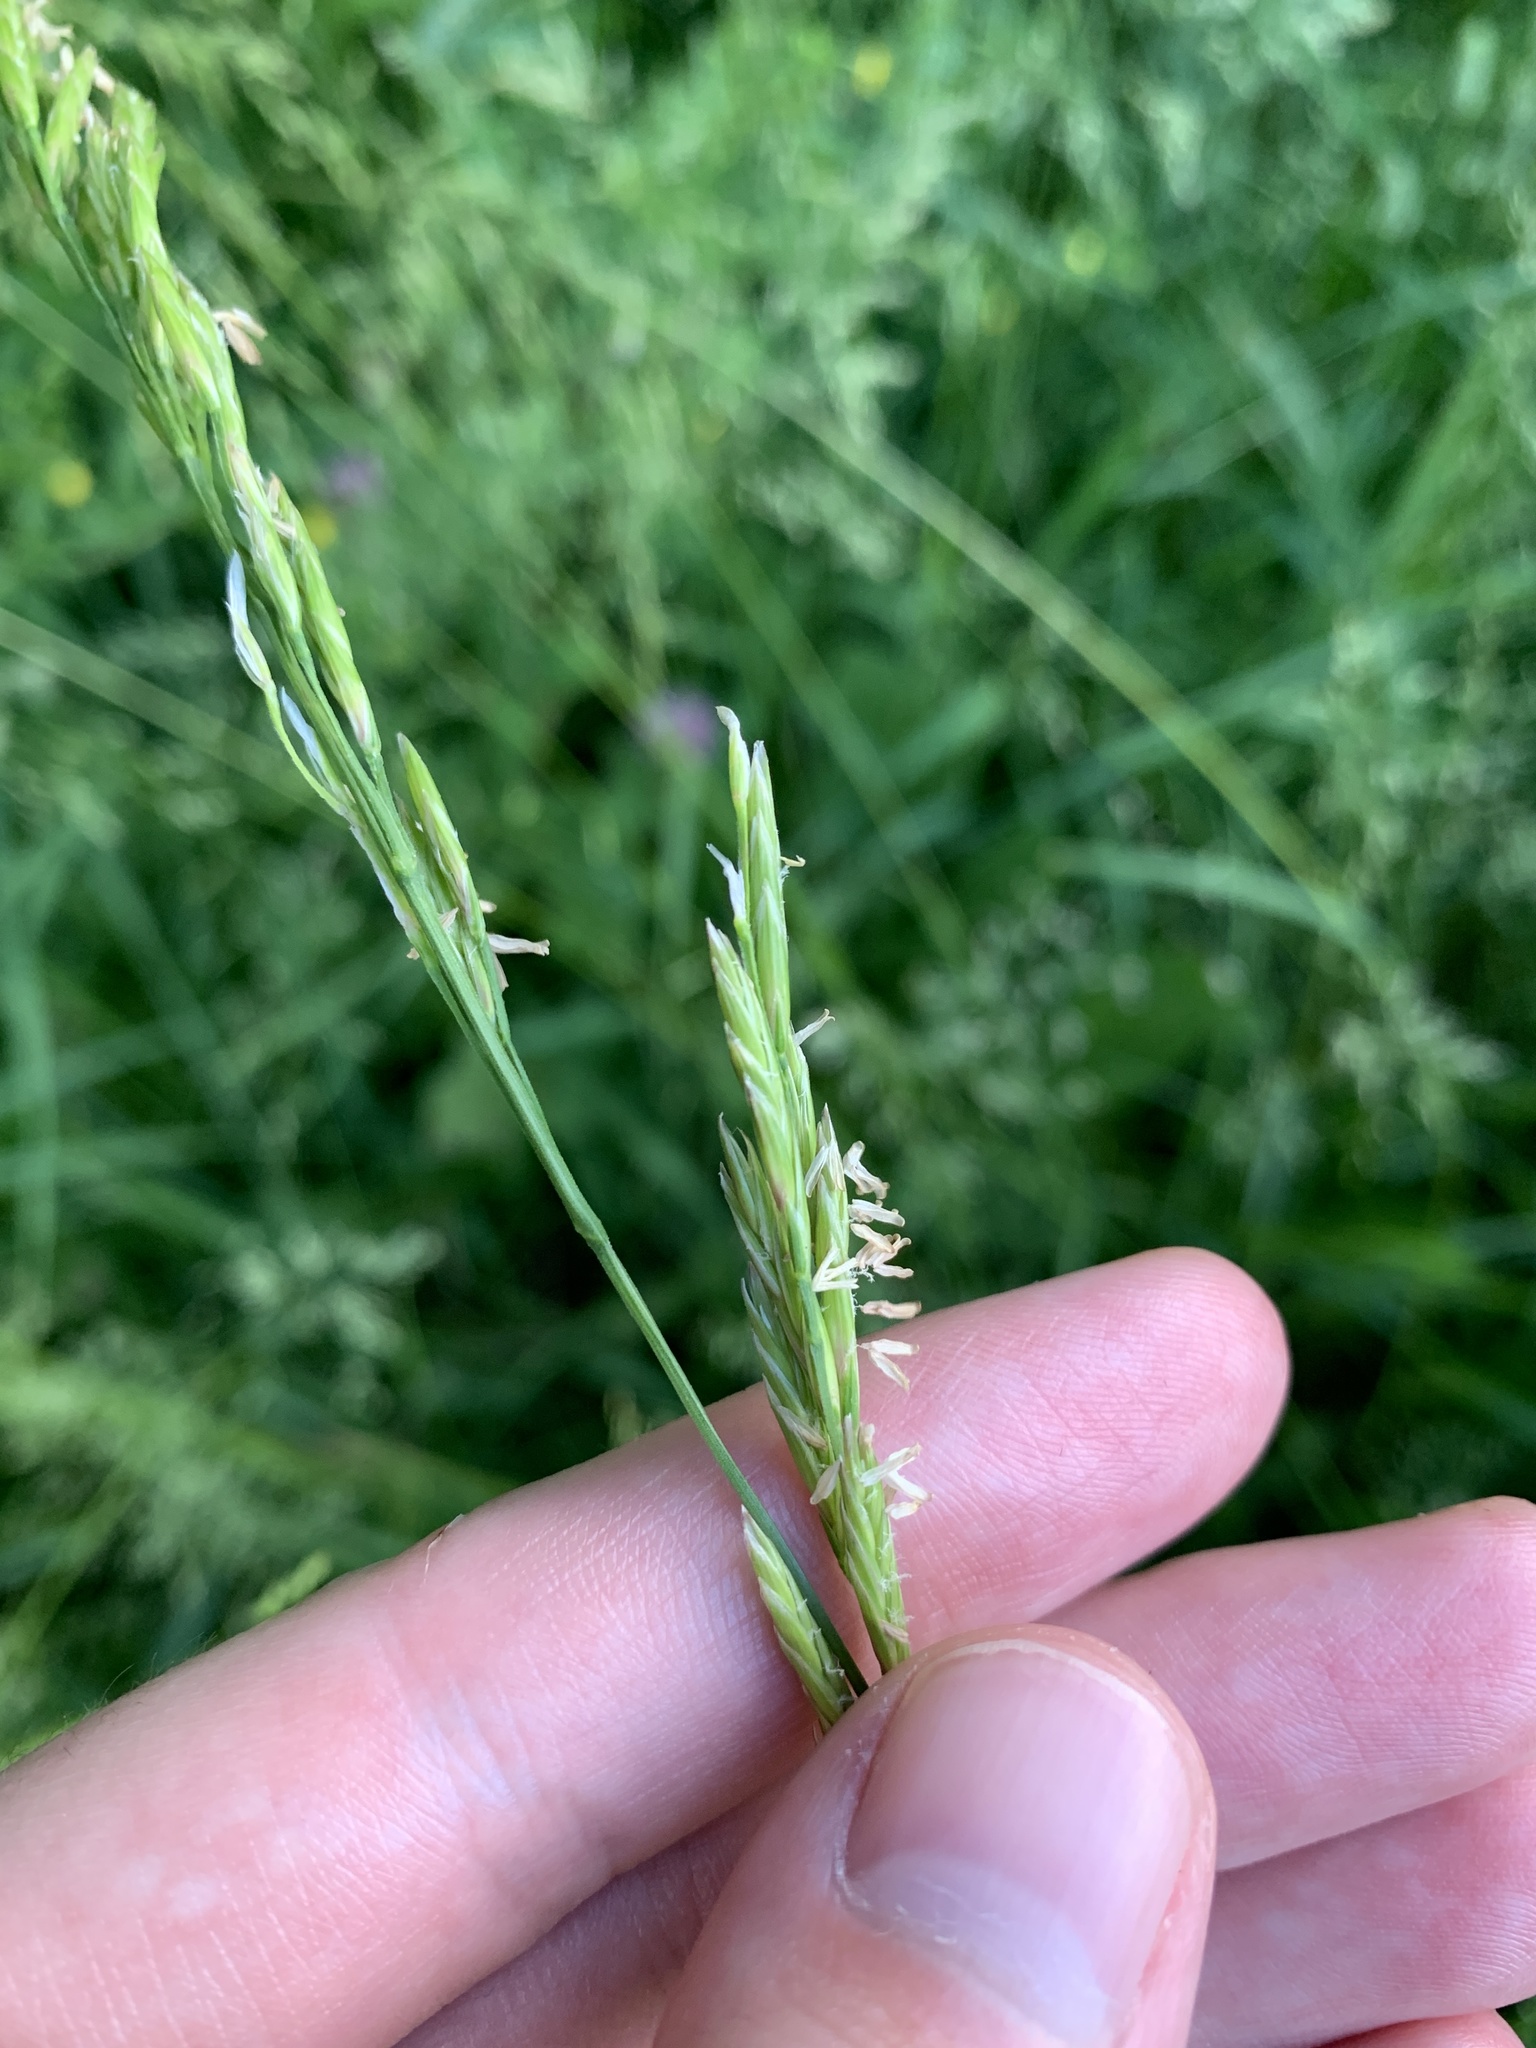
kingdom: Plantae
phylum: Tracheophyta
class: Liliopsida
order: Poales
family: Poaceae
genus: Lolium
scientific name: Lolium pratense
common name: Dover grass
